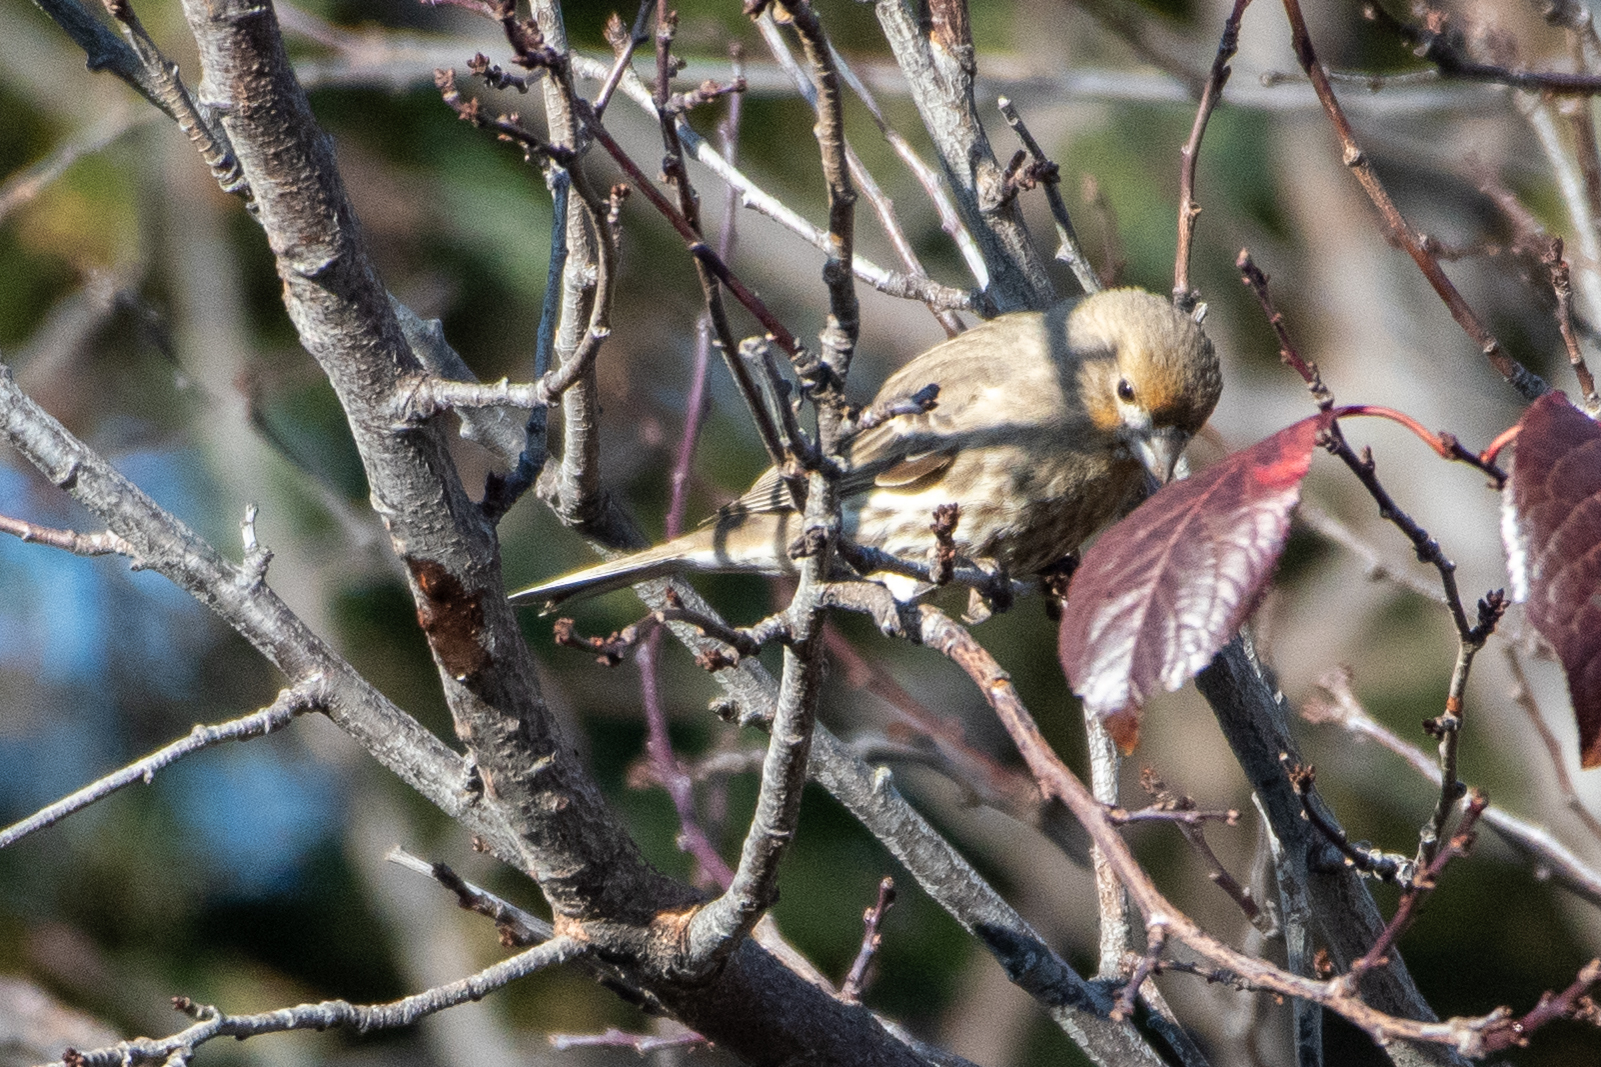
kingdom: Animalia
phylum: Chordata
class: Aves
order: Passeriformes
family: Fringillidae
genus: Haemorhous
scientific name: Haemorhous mexicanus
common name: House finch
